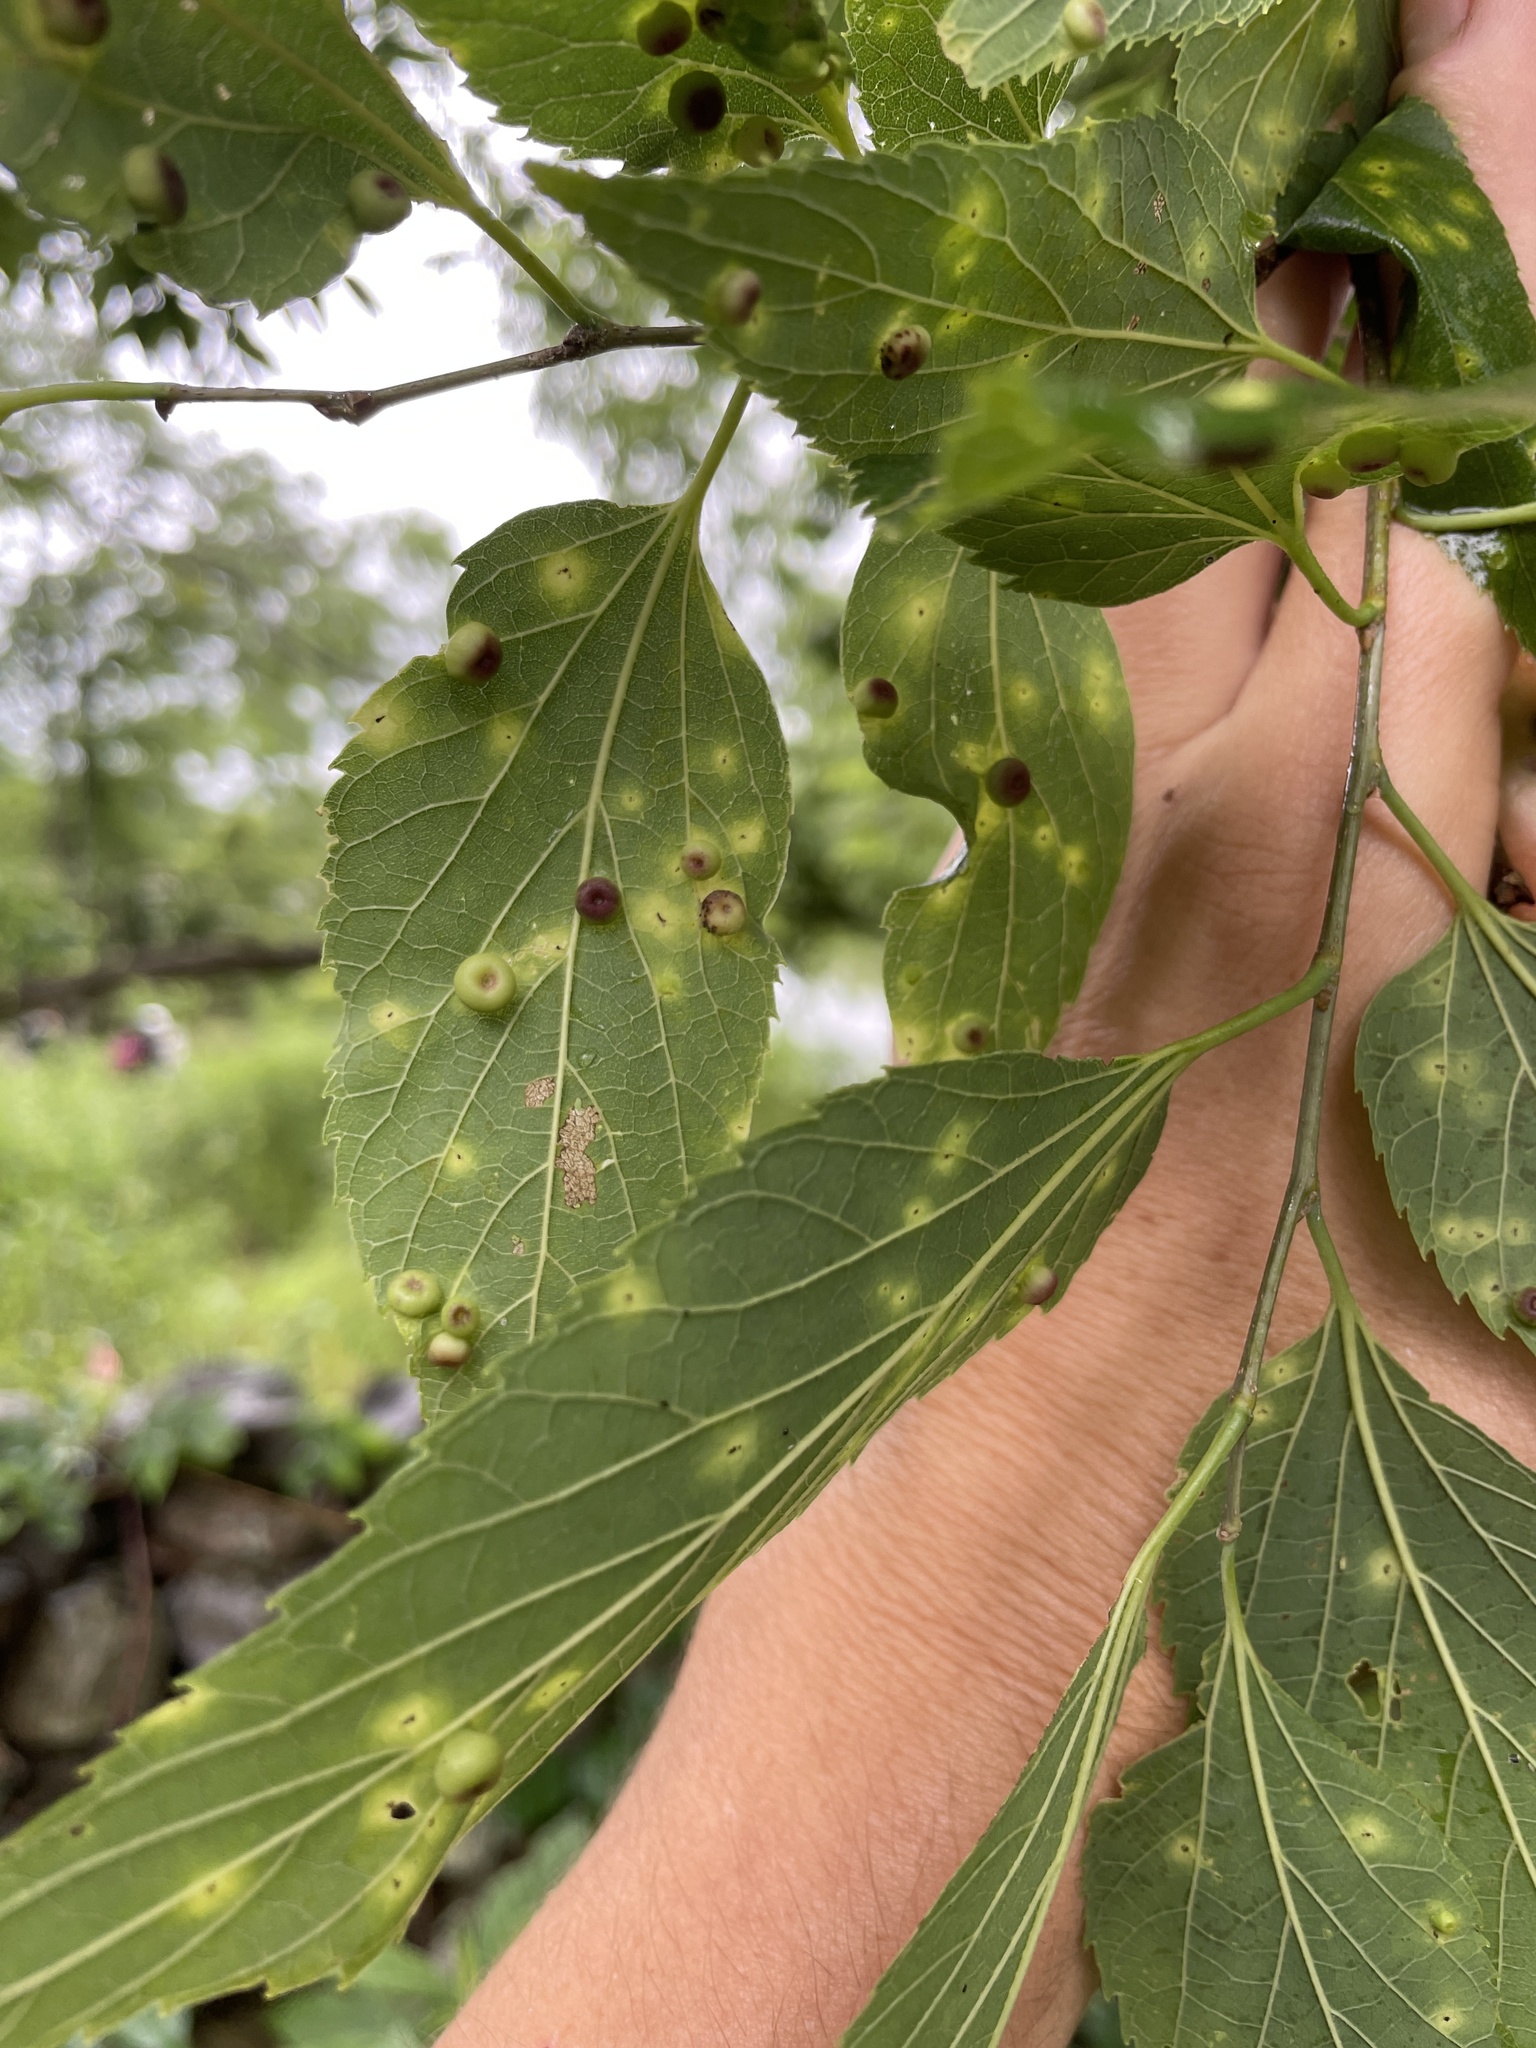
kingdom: Animalia
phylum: Arthropoda
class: Insecta
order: Hemiptera
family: Aphalaridae
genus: Pachypsylla
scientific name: Pachypsylla celtidismamma
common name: Hackberry nipplegall psyllid
